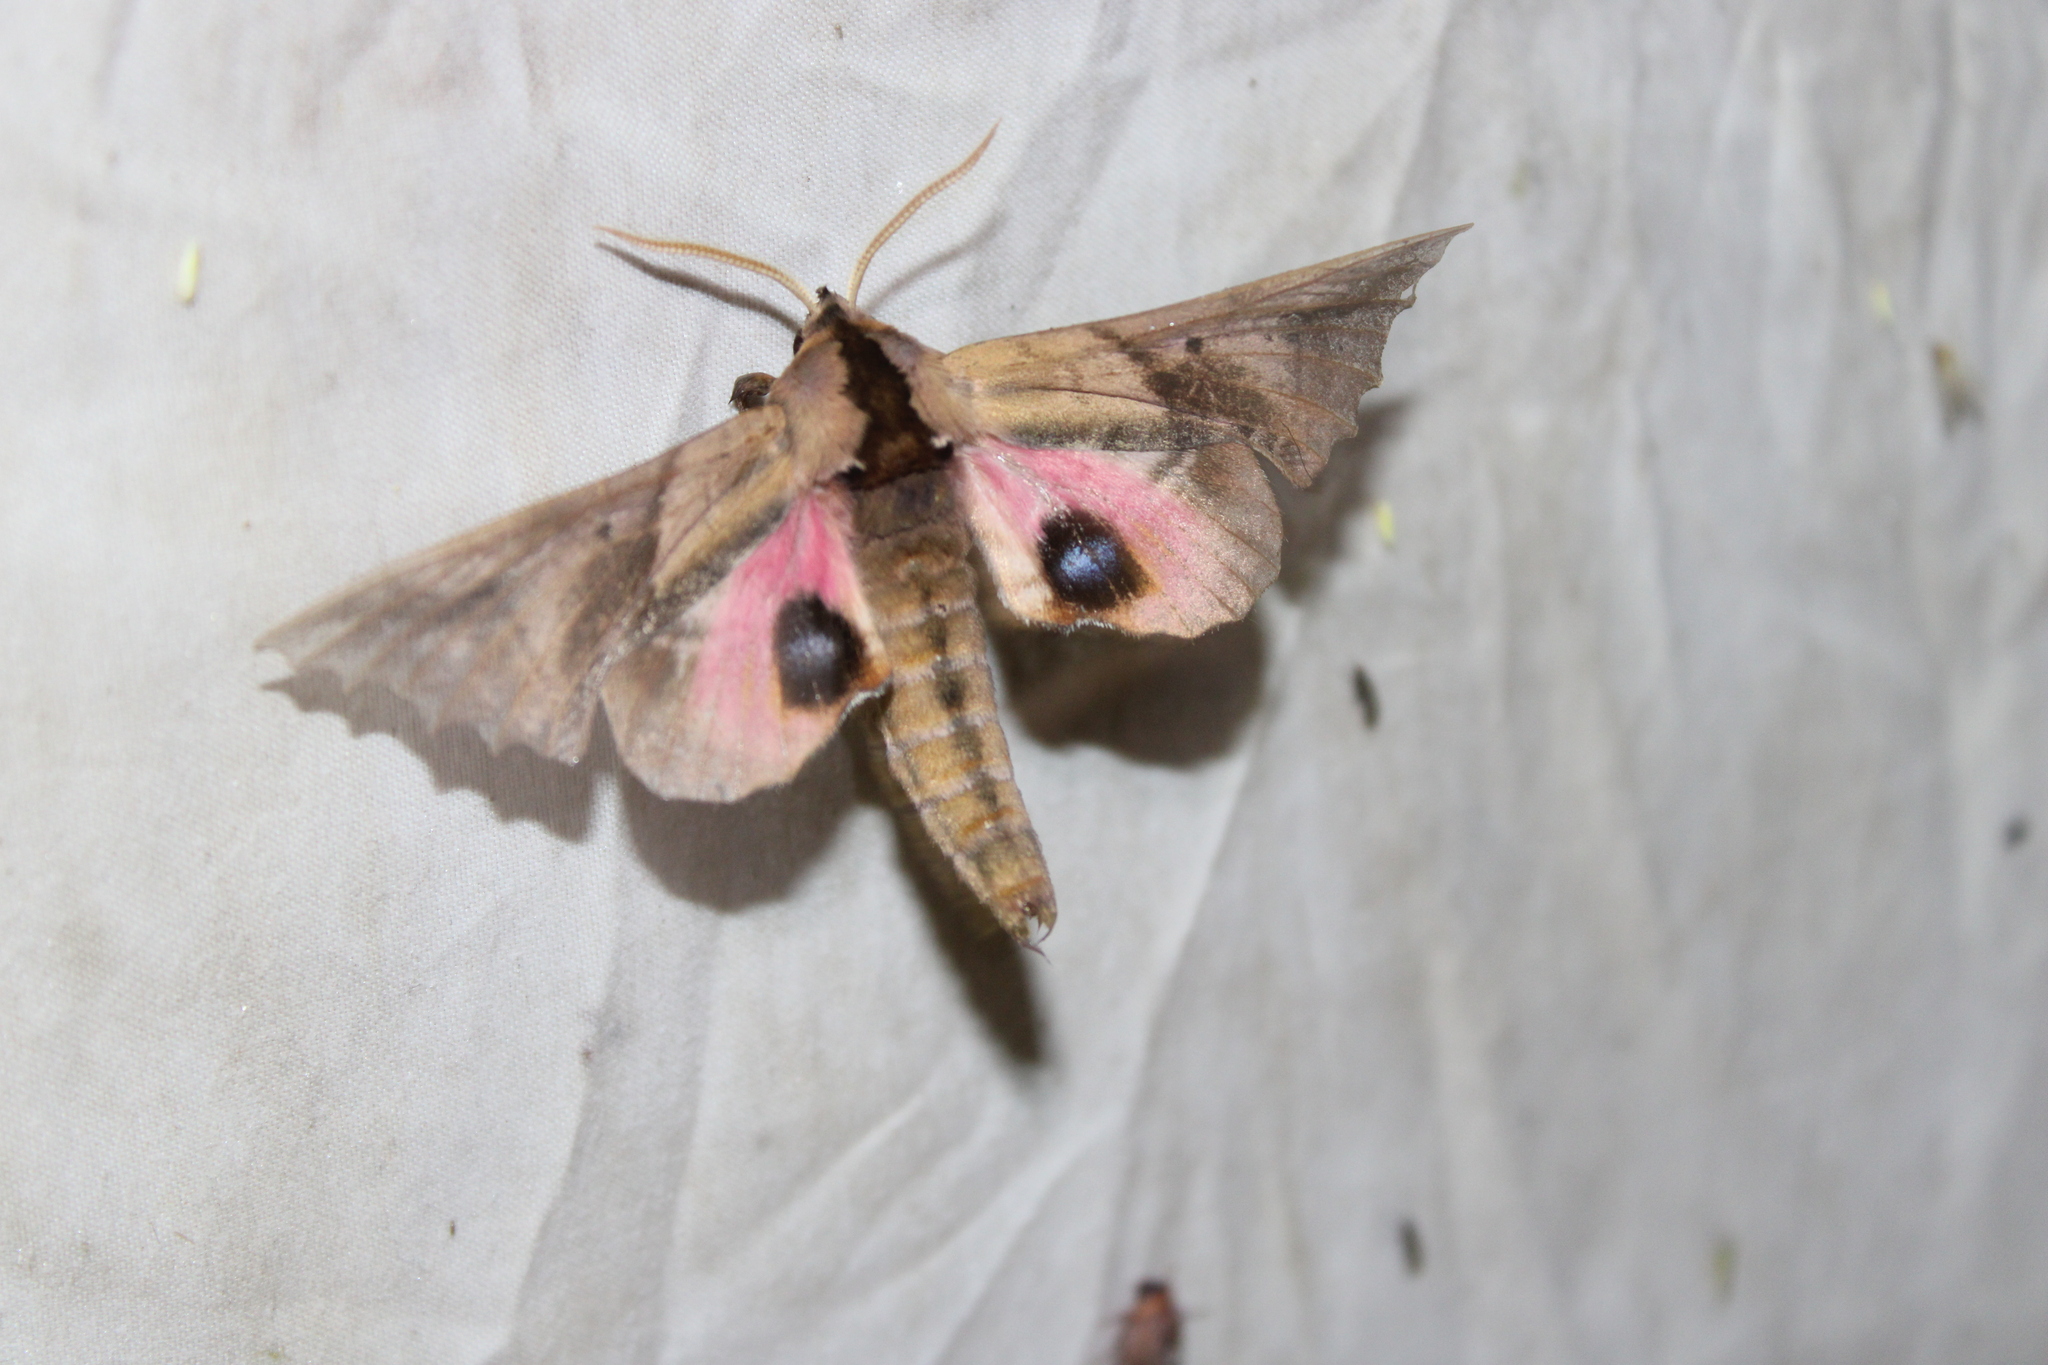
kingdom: Animalia
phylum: Arthropoda
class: Insecta
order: Lepidoptera
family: Sphingidae
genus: Paonias
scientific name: Paonias excaecata
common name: Blind-eyed sphinx
